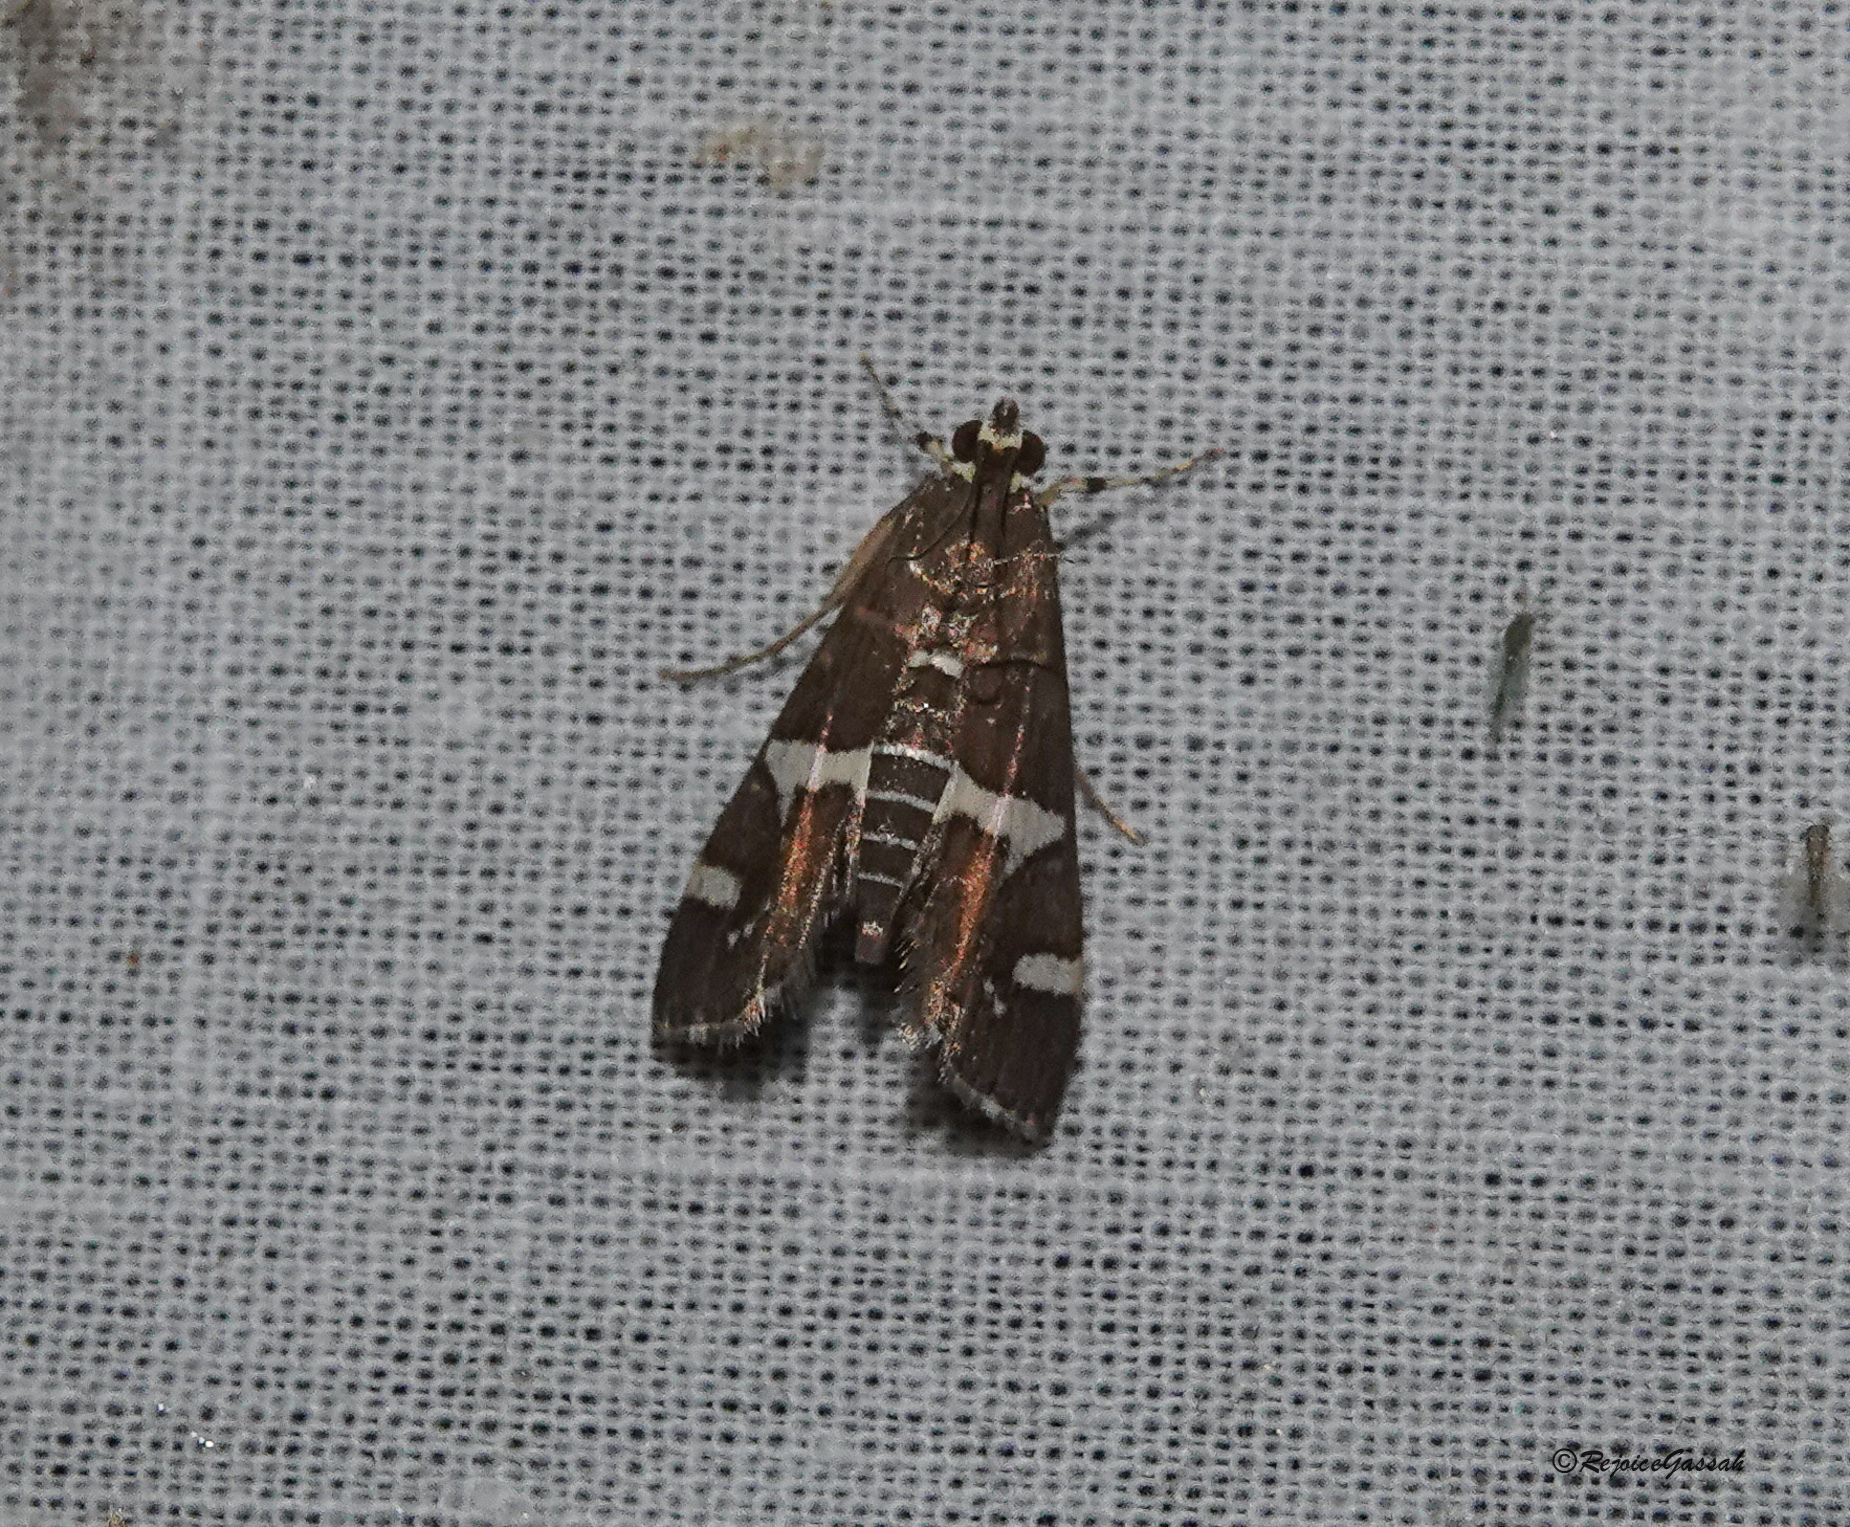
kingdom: Animalia
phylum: Arthropoda
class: Insecta
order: Lepidoptera
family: Crambidae
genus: Spoladea
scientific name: Spoladea recurvalis
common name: Beet webworm moth
